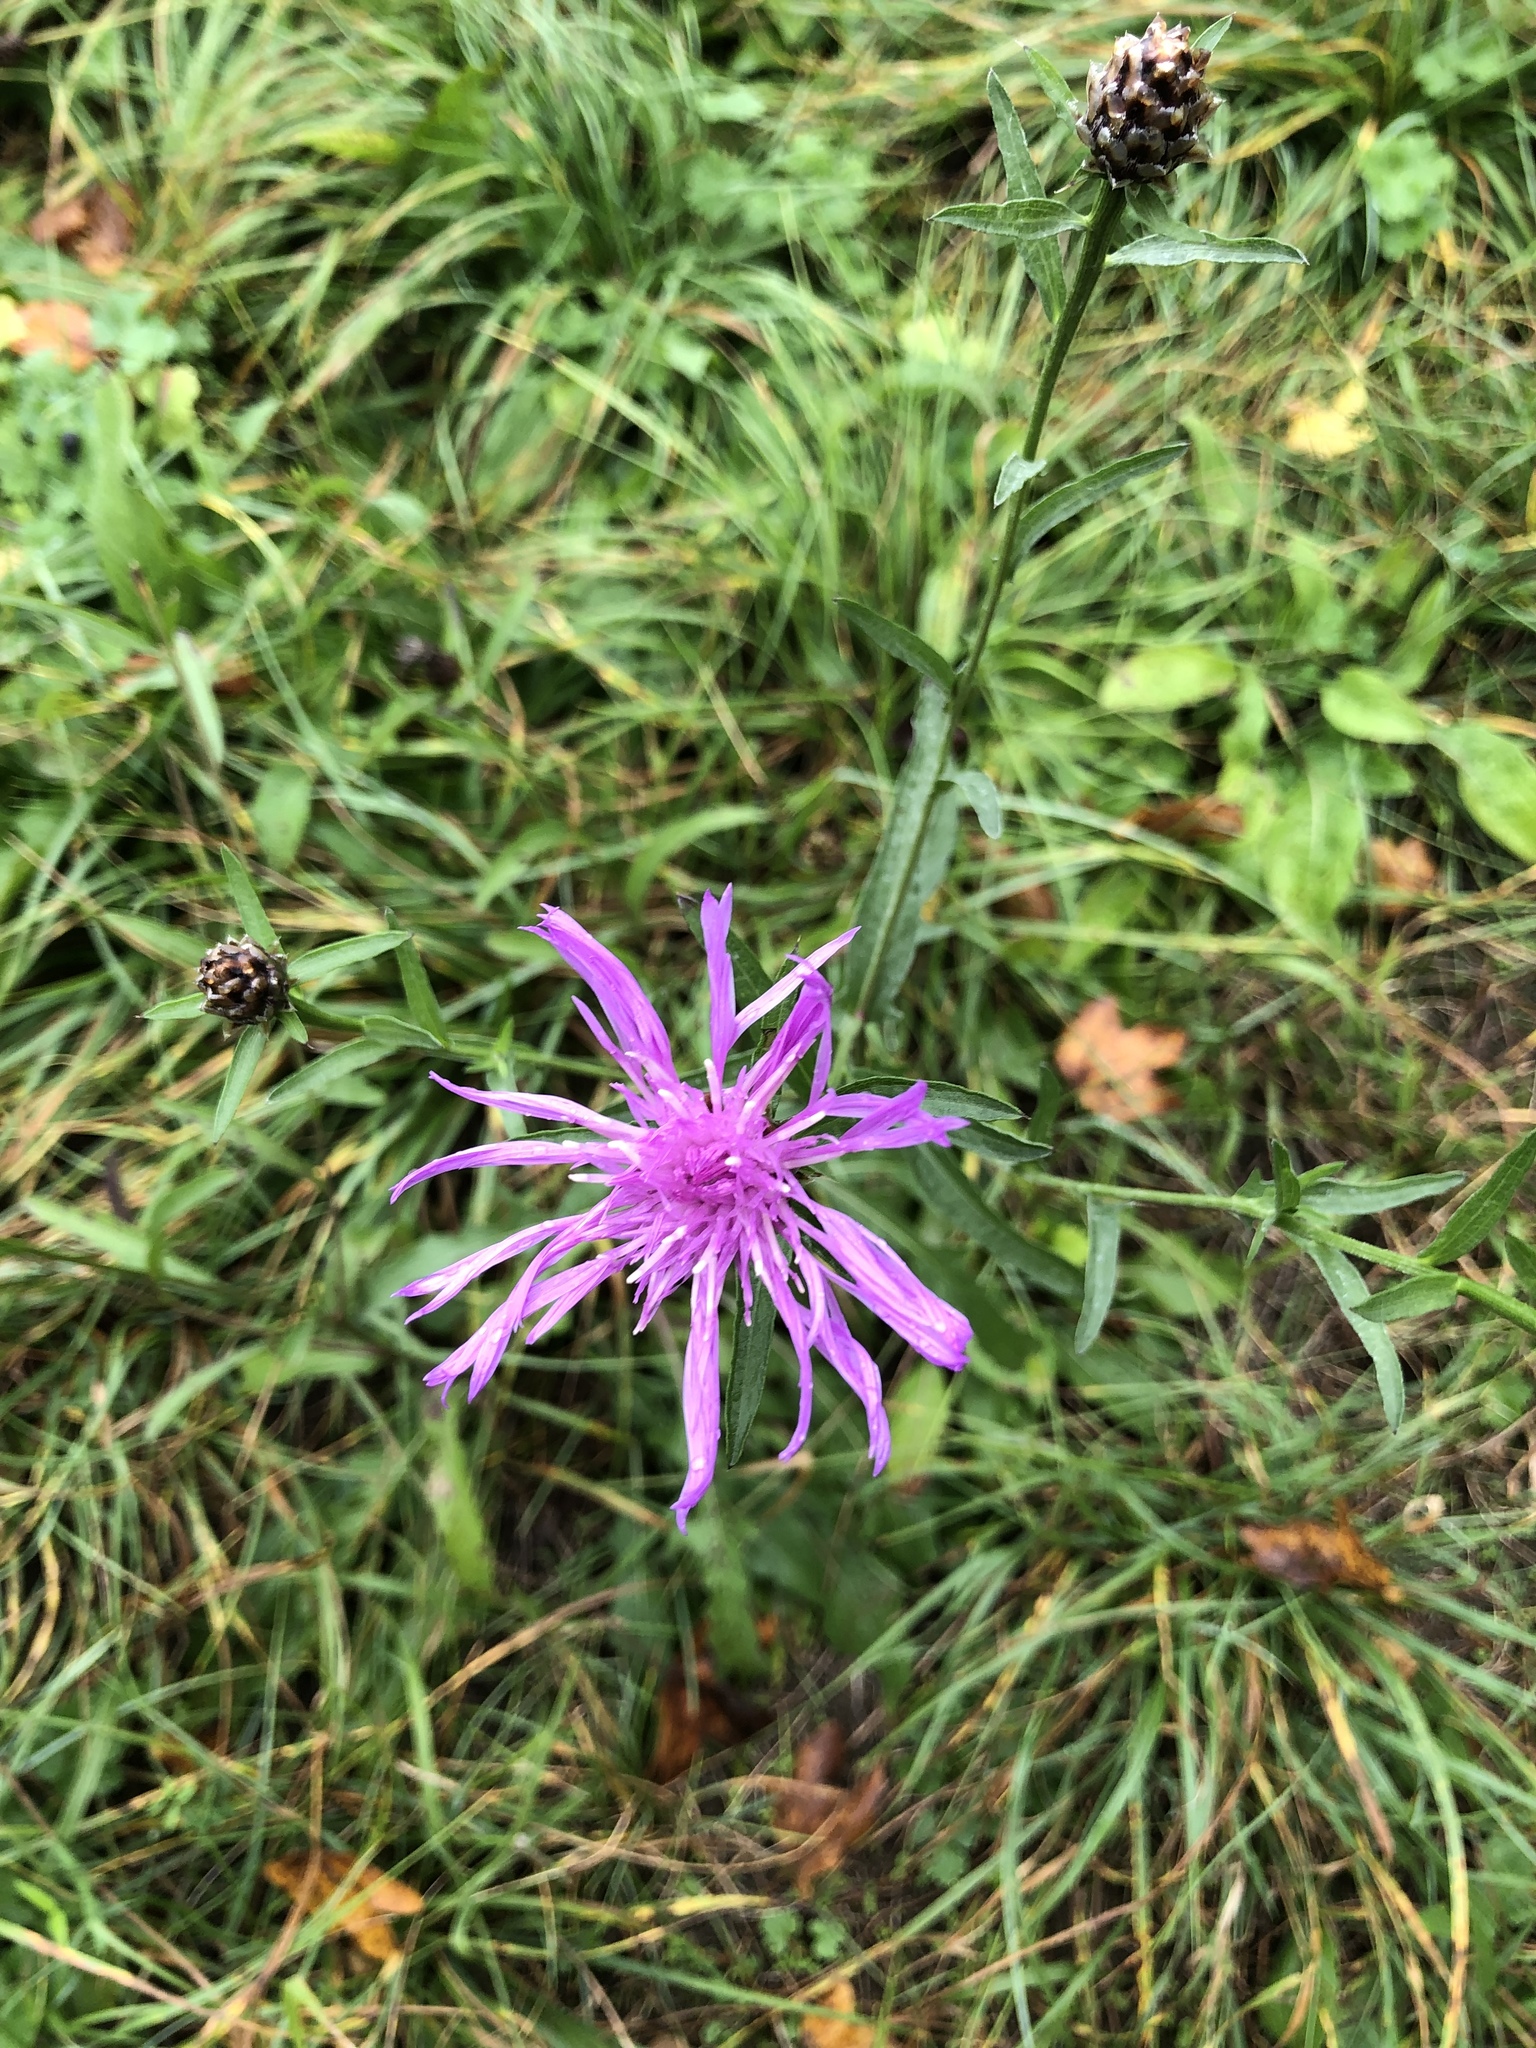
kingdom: Plantae
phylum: Tracheophyta
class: Magnoliopsida
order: Asterales
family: Asteraceae
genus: Centaurea
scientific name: Centaurea jacea
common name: Brown knapweed
